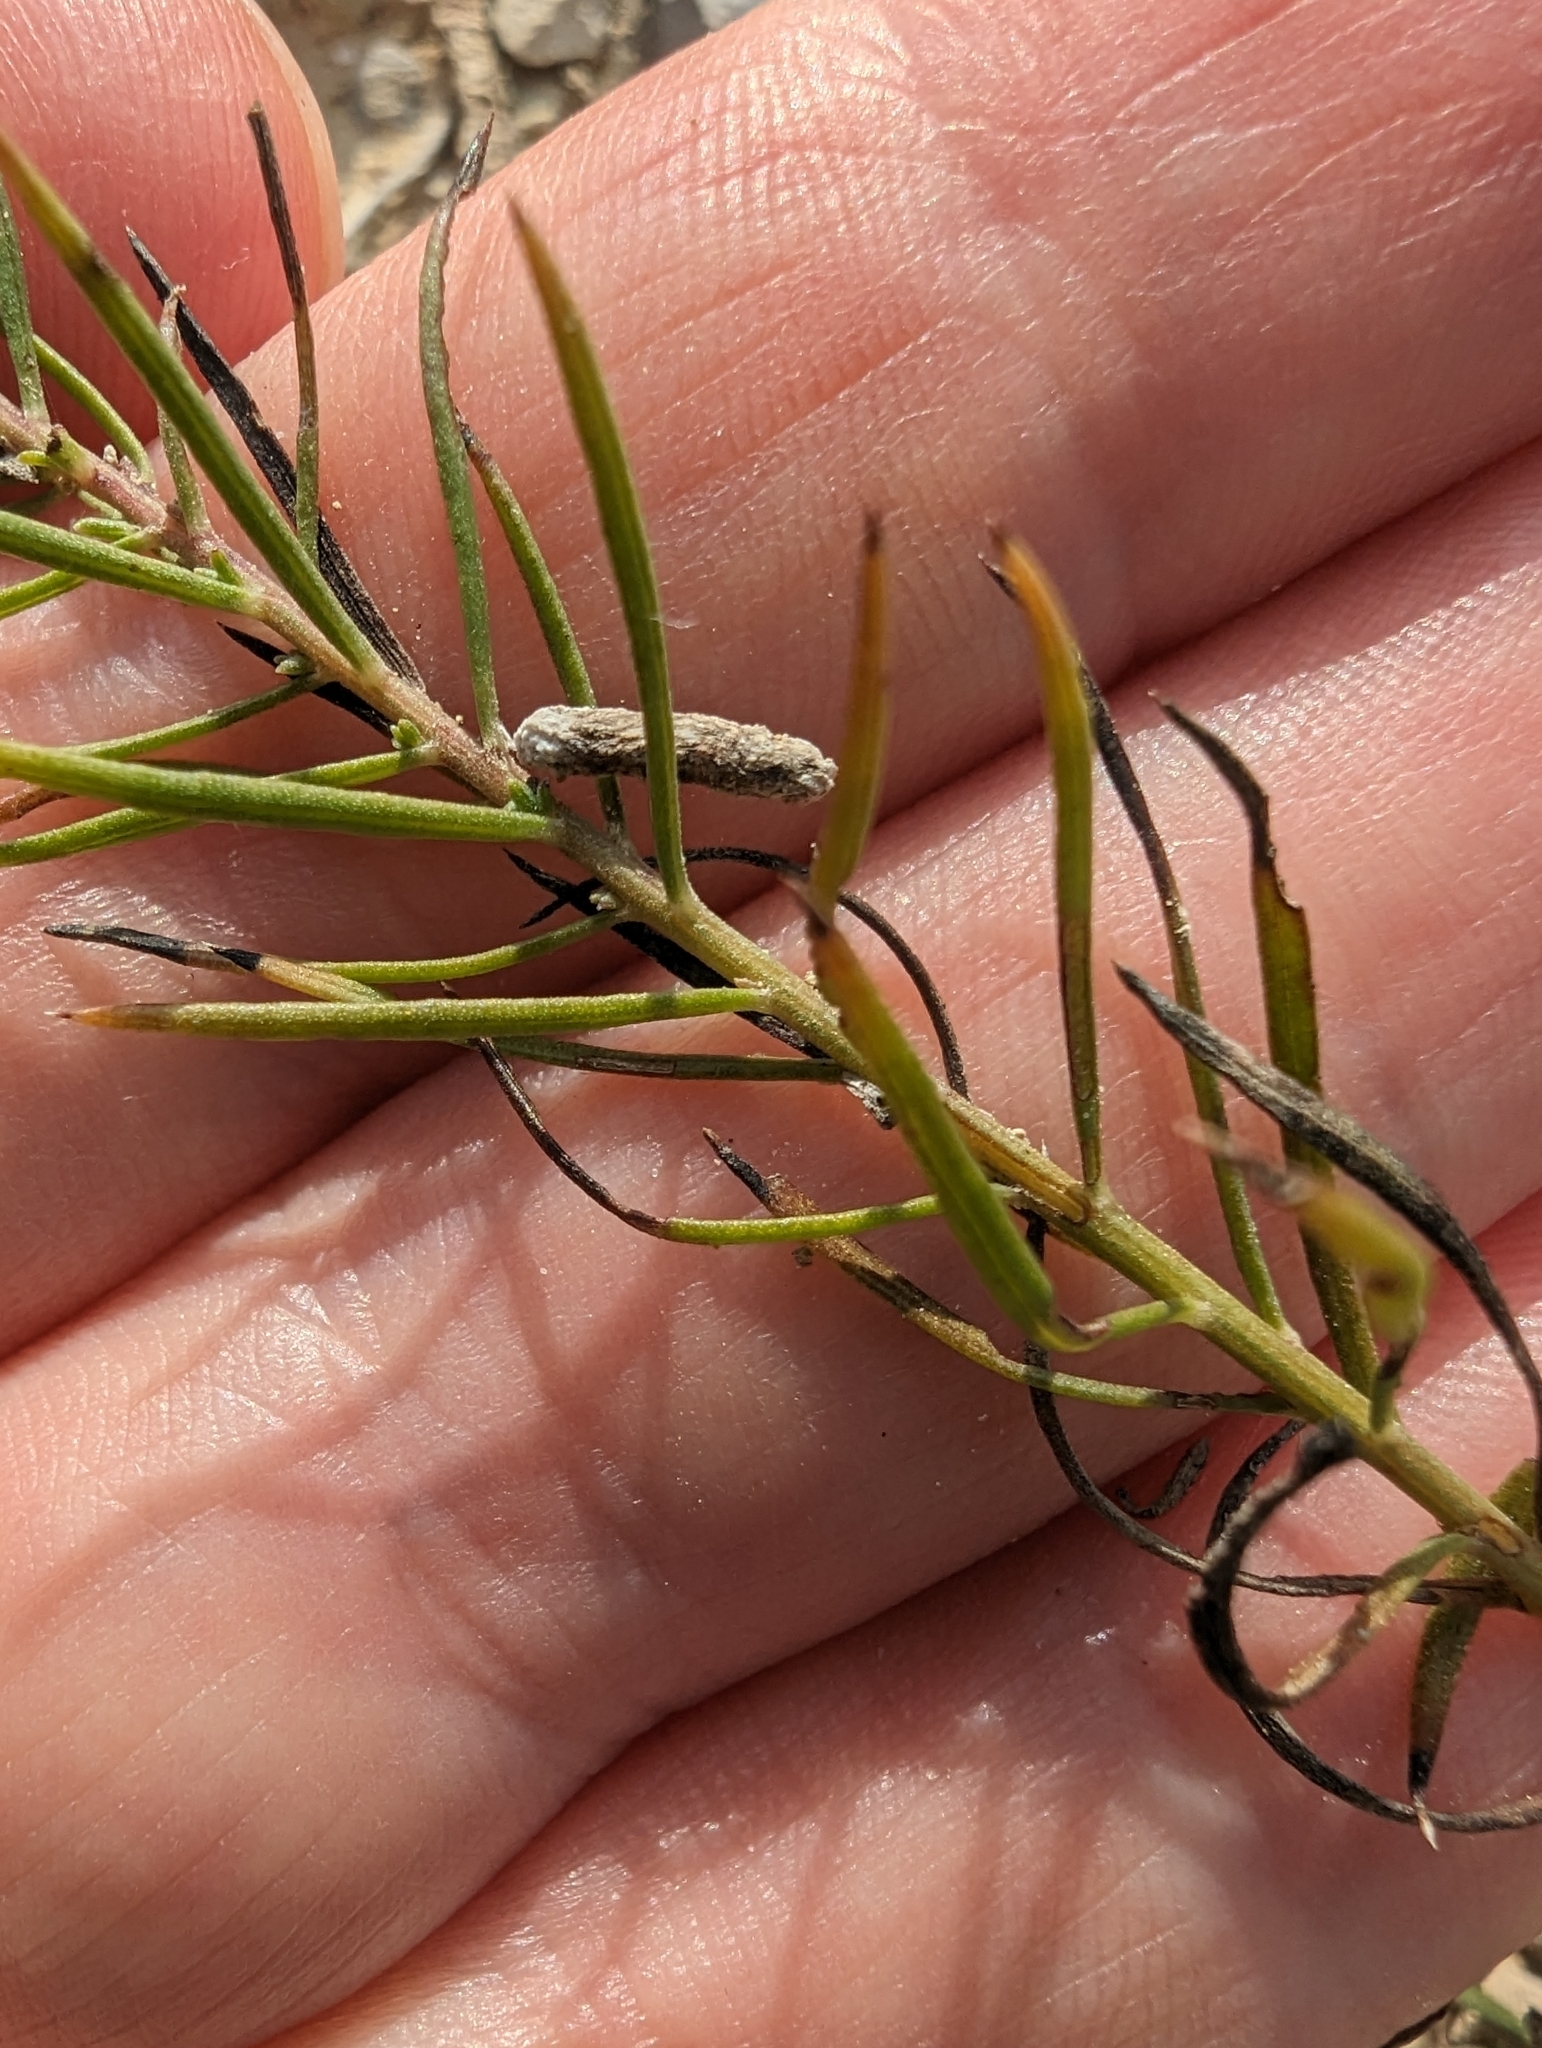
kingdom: Plantae
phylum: Tracheophyta
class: Magnoliopsida
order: Asterales
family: Asteraceae
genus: Galatella
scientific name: Galatella linosyris
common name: Goldilocks aster
